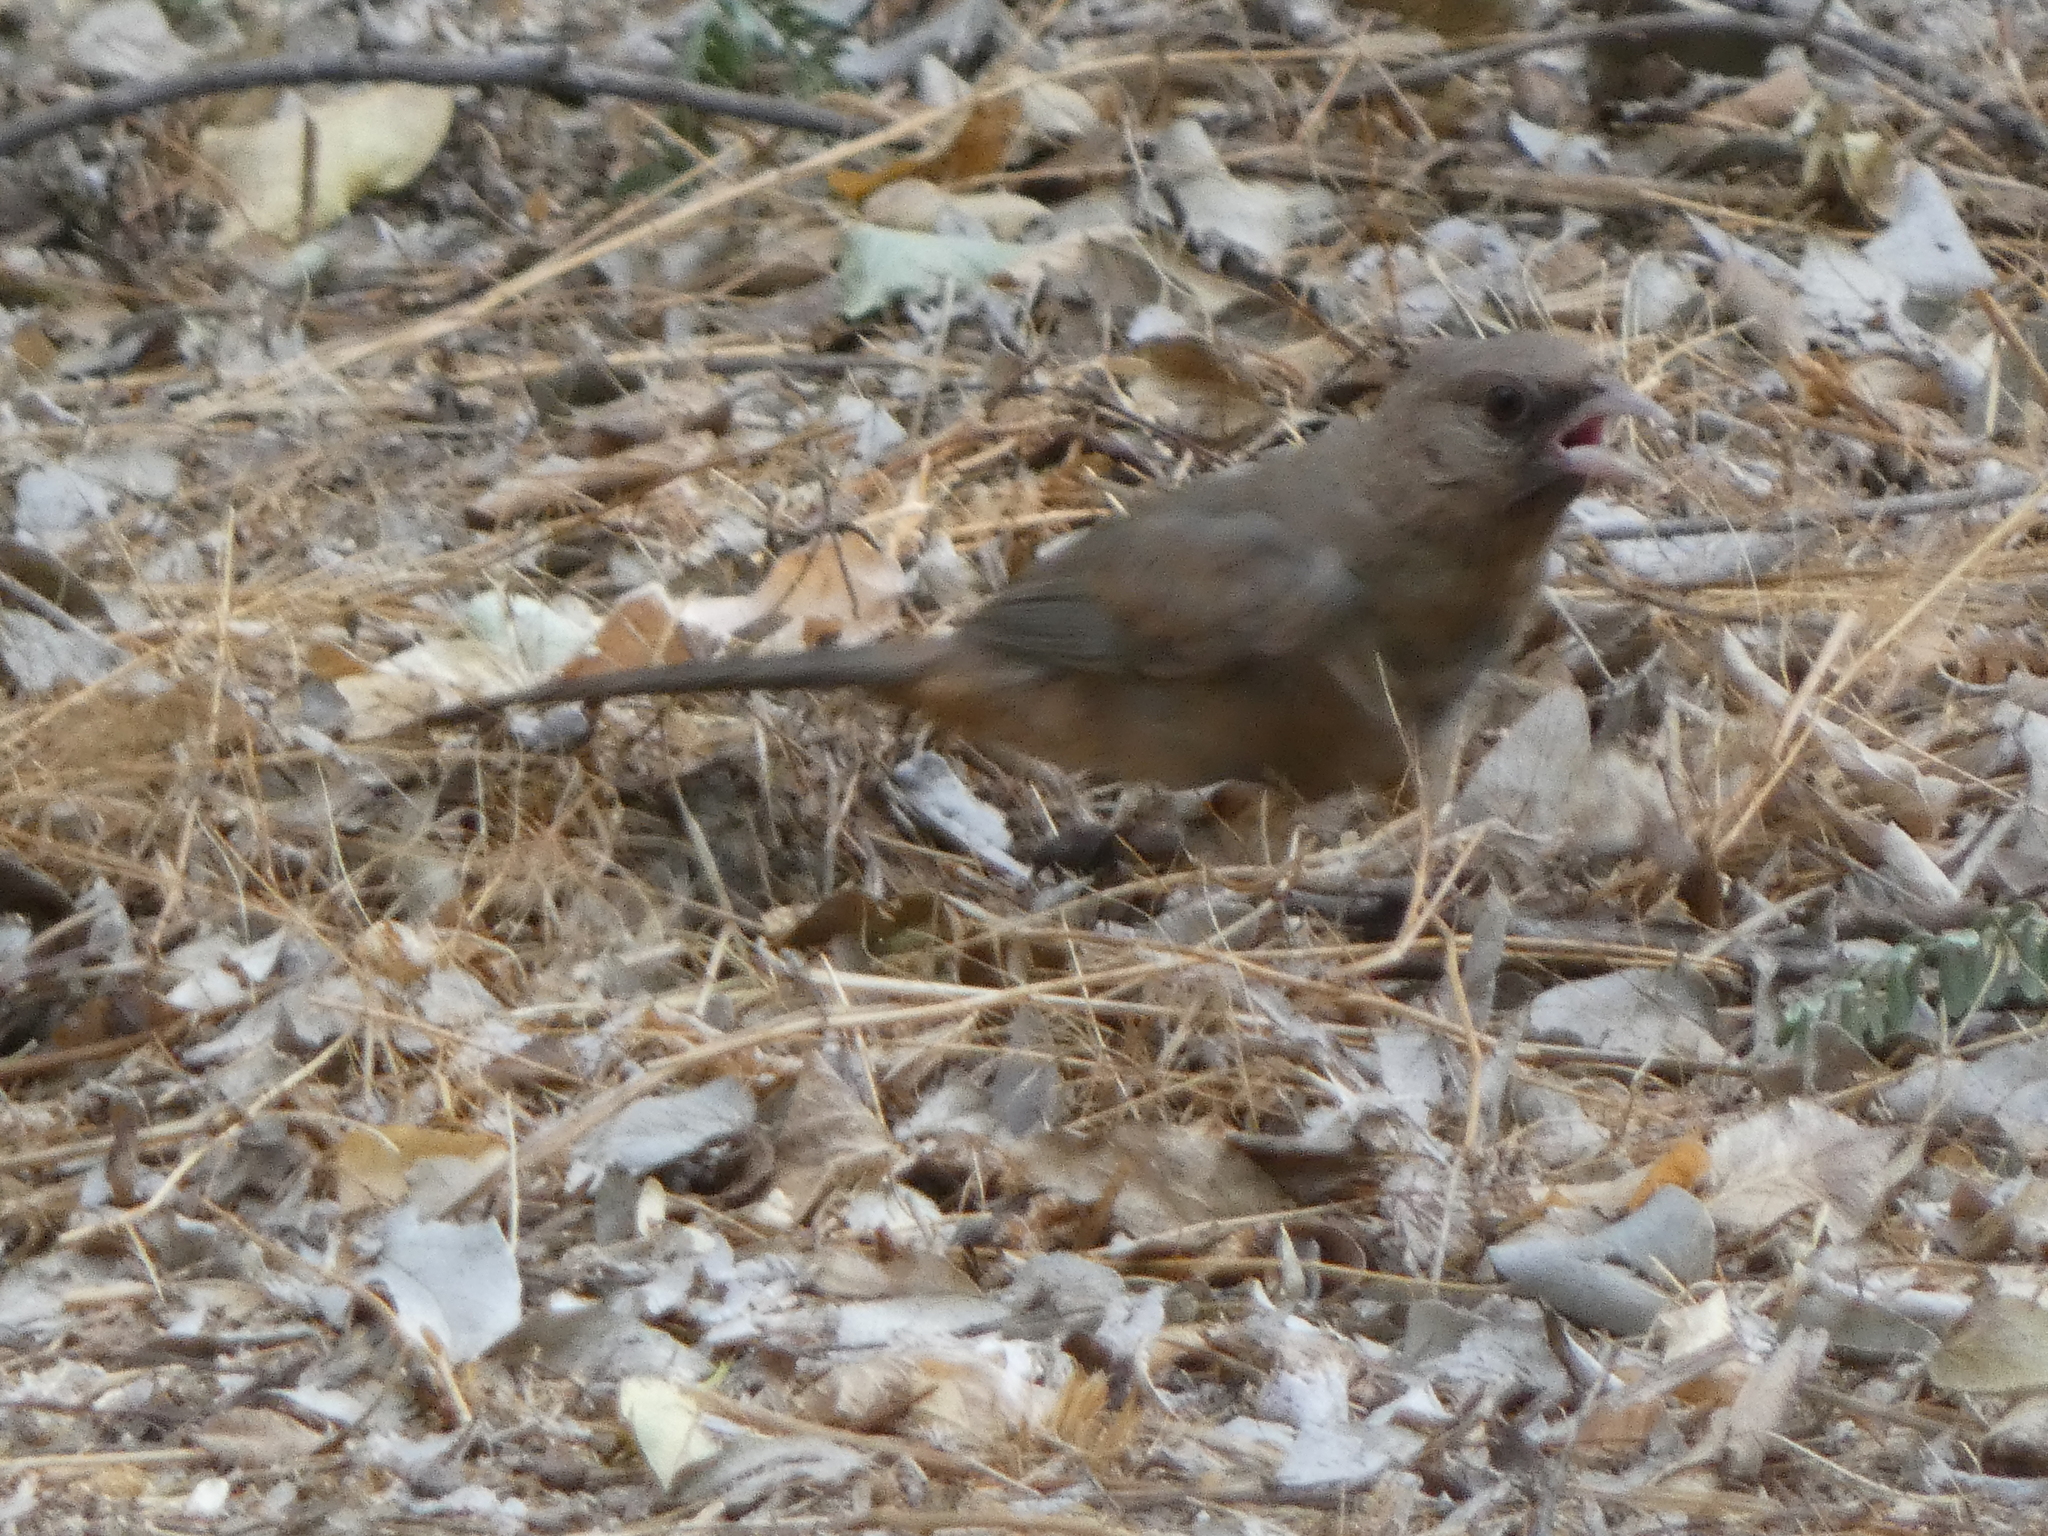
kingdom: Animalia
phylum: Chordata
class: Aves
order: Passeriformes
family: Passerellidae
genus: Melozone
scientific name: Melozone aberti
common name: Abert's towhee
